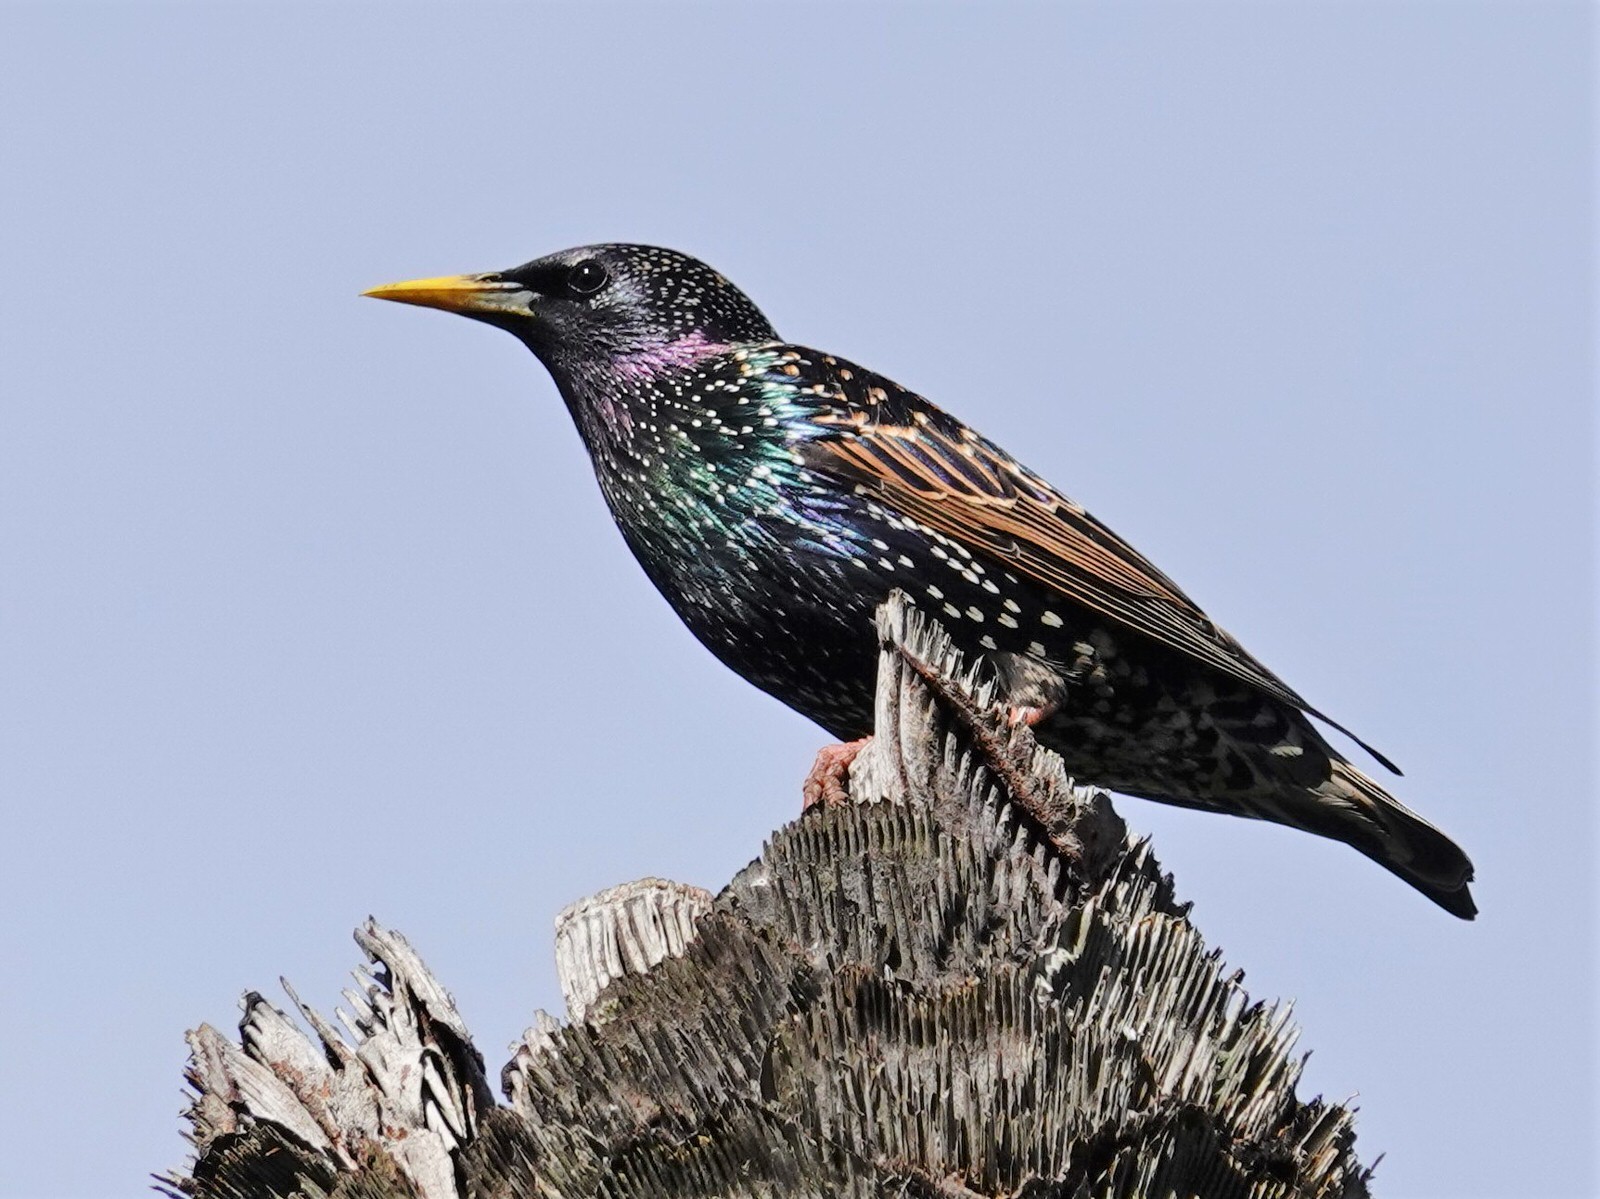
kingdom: Animalia
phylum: Chordata
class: Aves
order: Passeriformes
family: Sturnidae
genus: Sturnus
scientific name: Sturnus vulgaris
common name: Common starling
